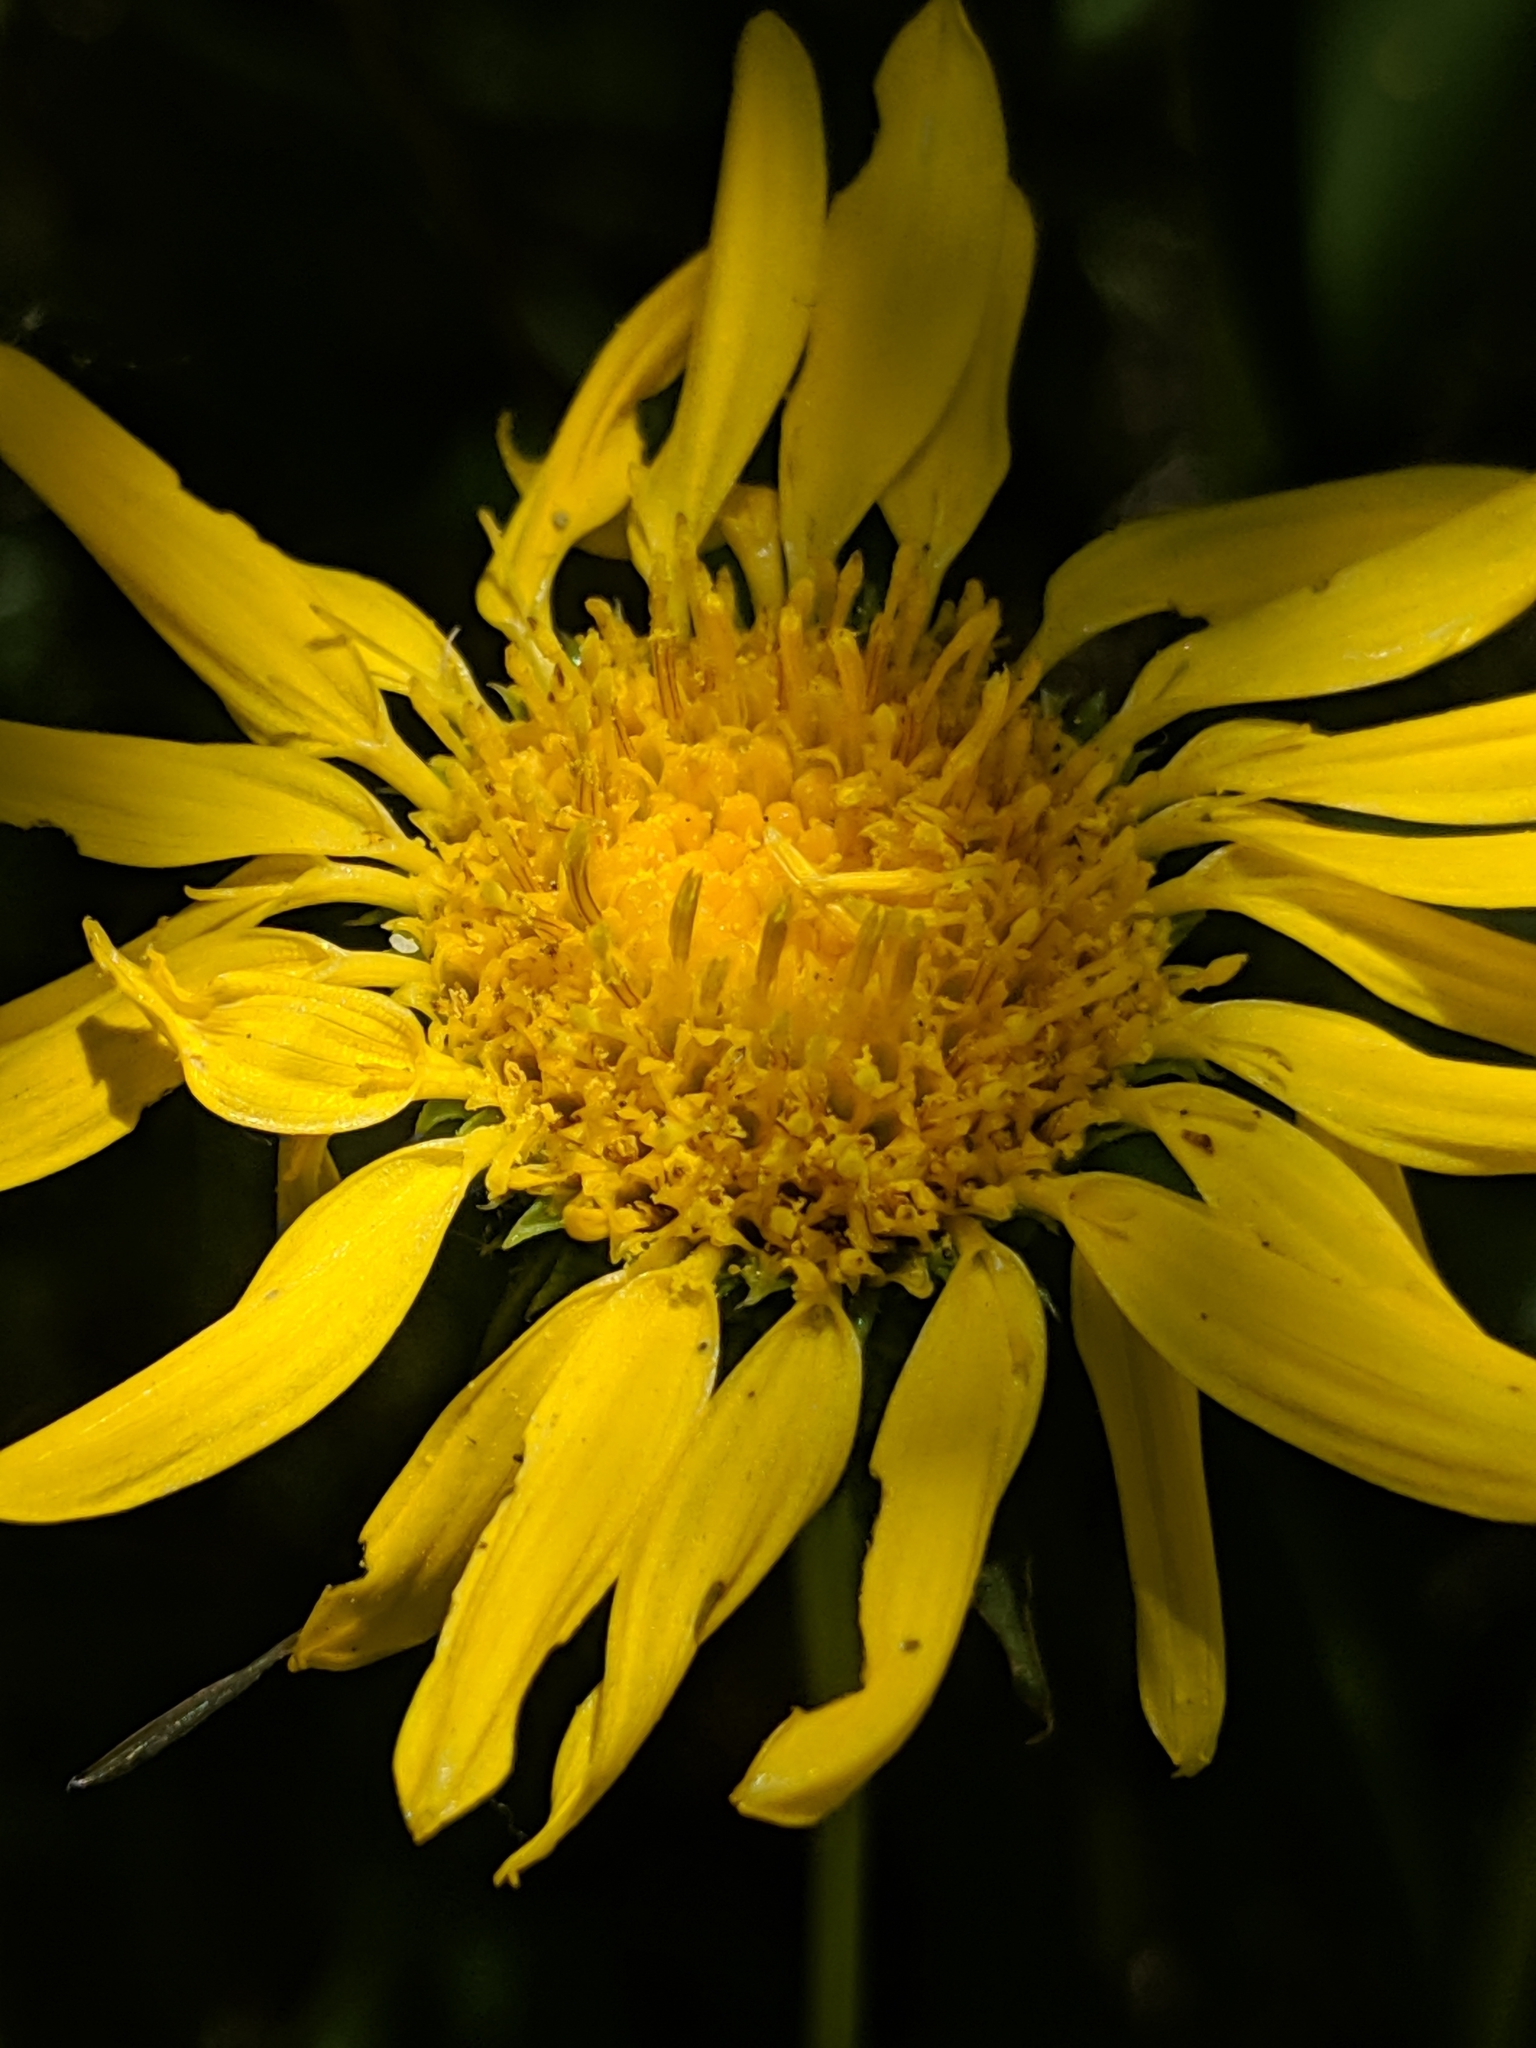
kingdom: Plantae
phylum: Tracheophyta
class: Magnoliopsida
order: Asterales
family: Asteraceae
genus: Grindelia
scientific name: Grindelia hirsutula
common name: Hairy gumweed
